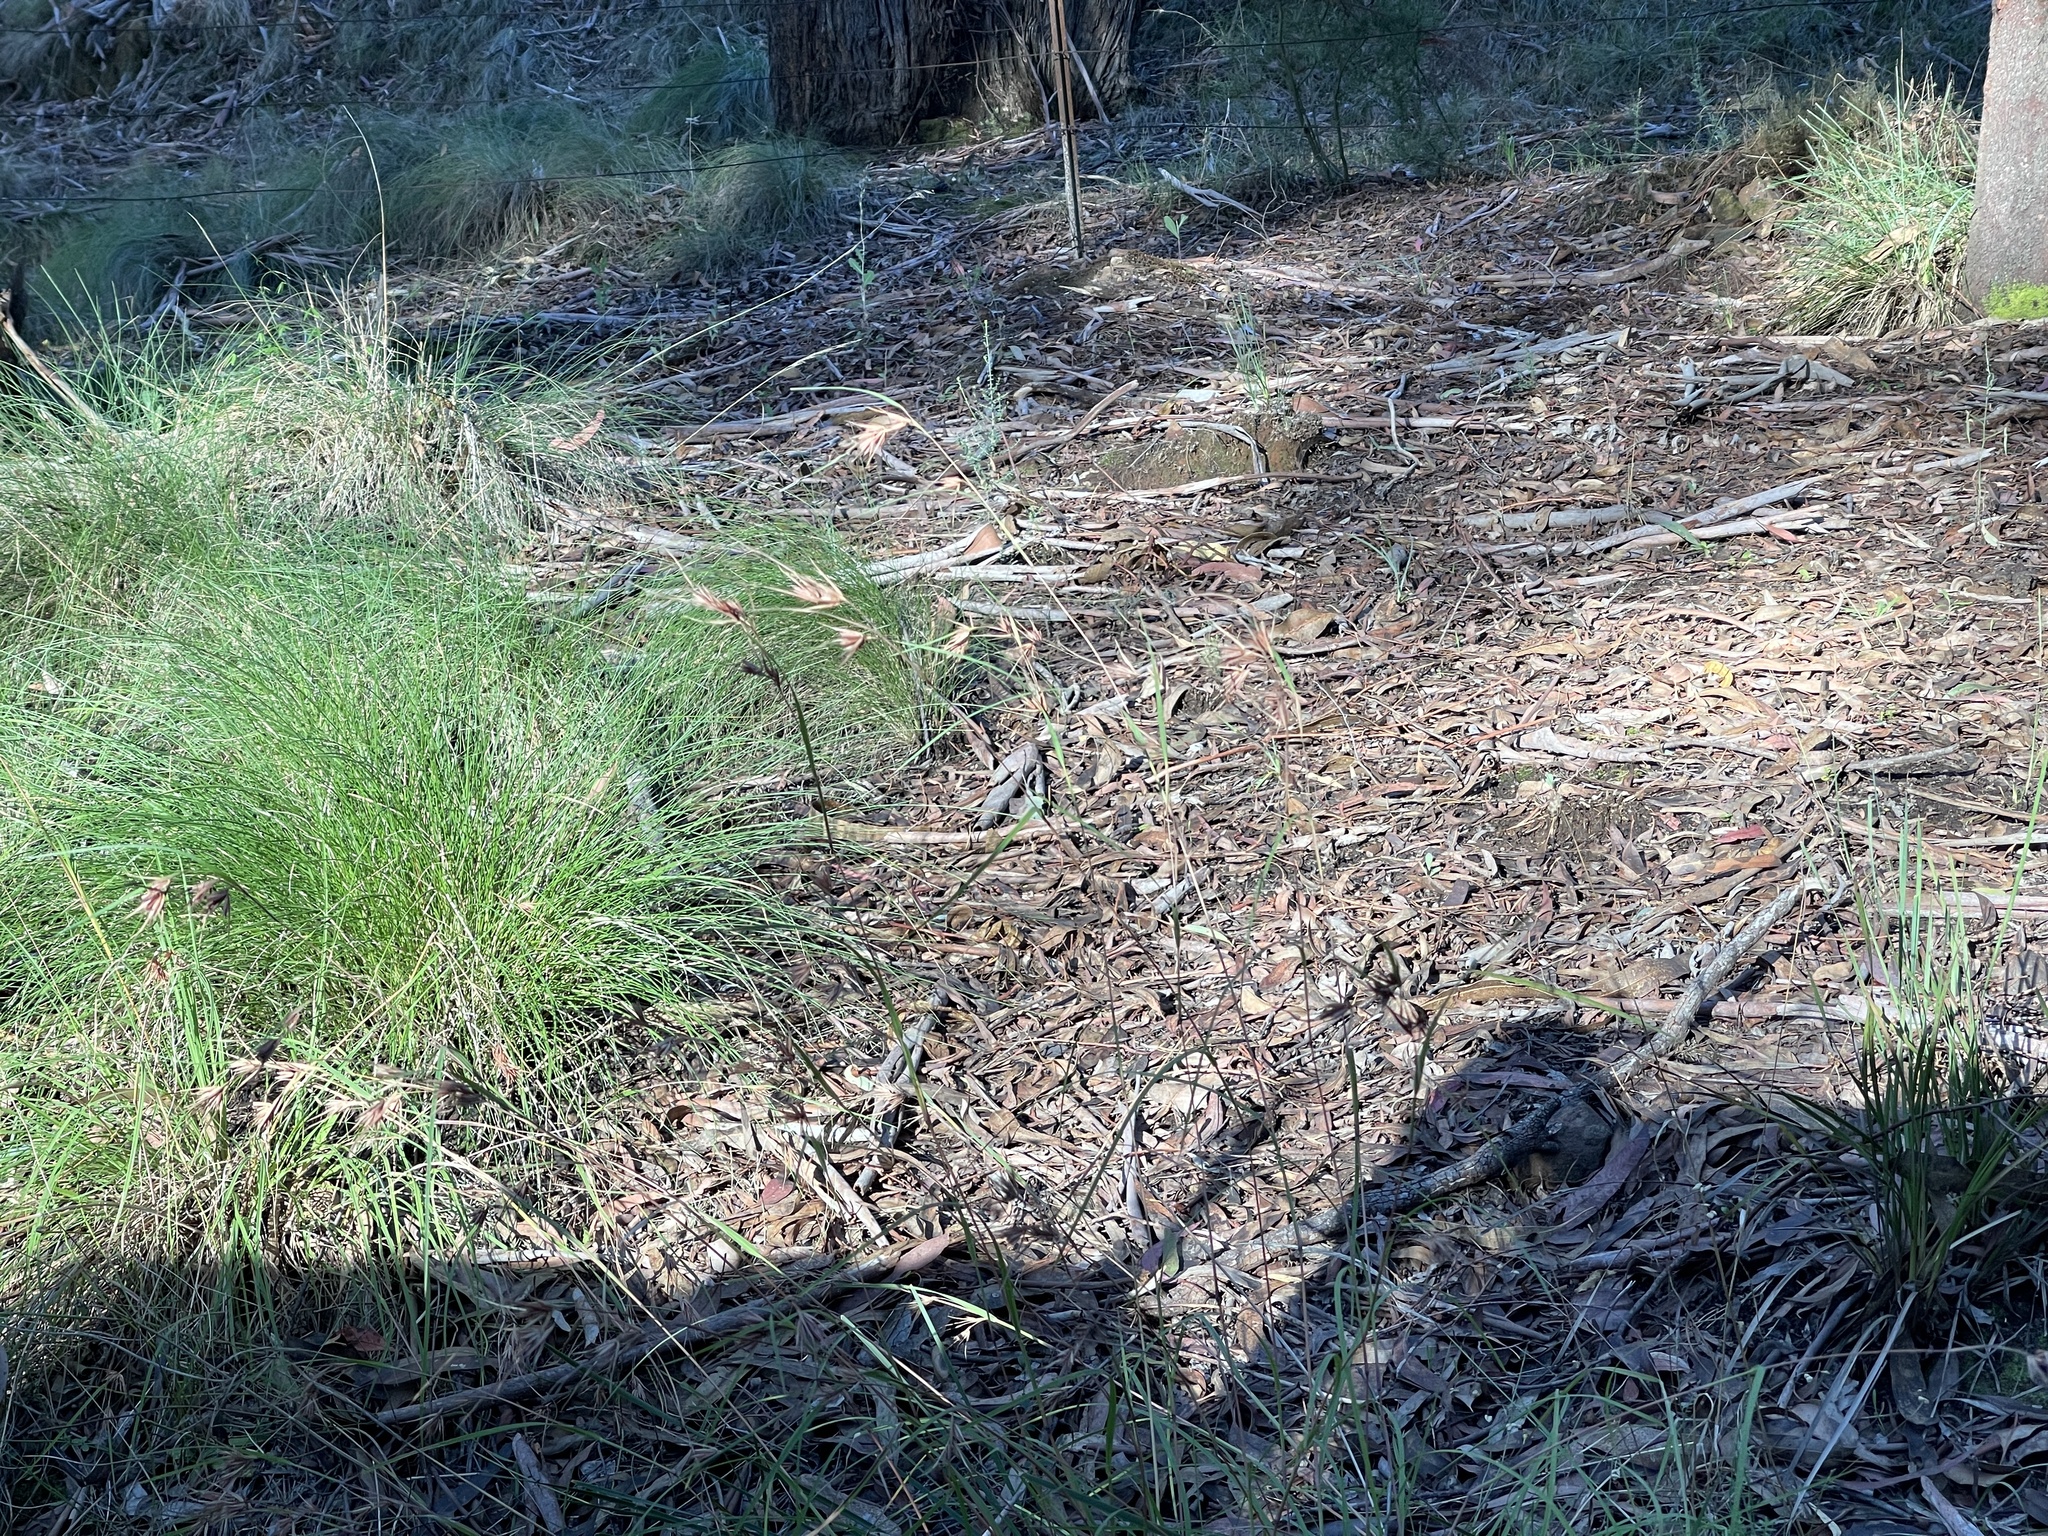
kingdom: Plantae
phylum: Tracheophyta
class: Liliopsida
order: Poales
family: Poaceae
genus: Themeda
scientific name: Themeda triandra
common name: Kangaroo grass
